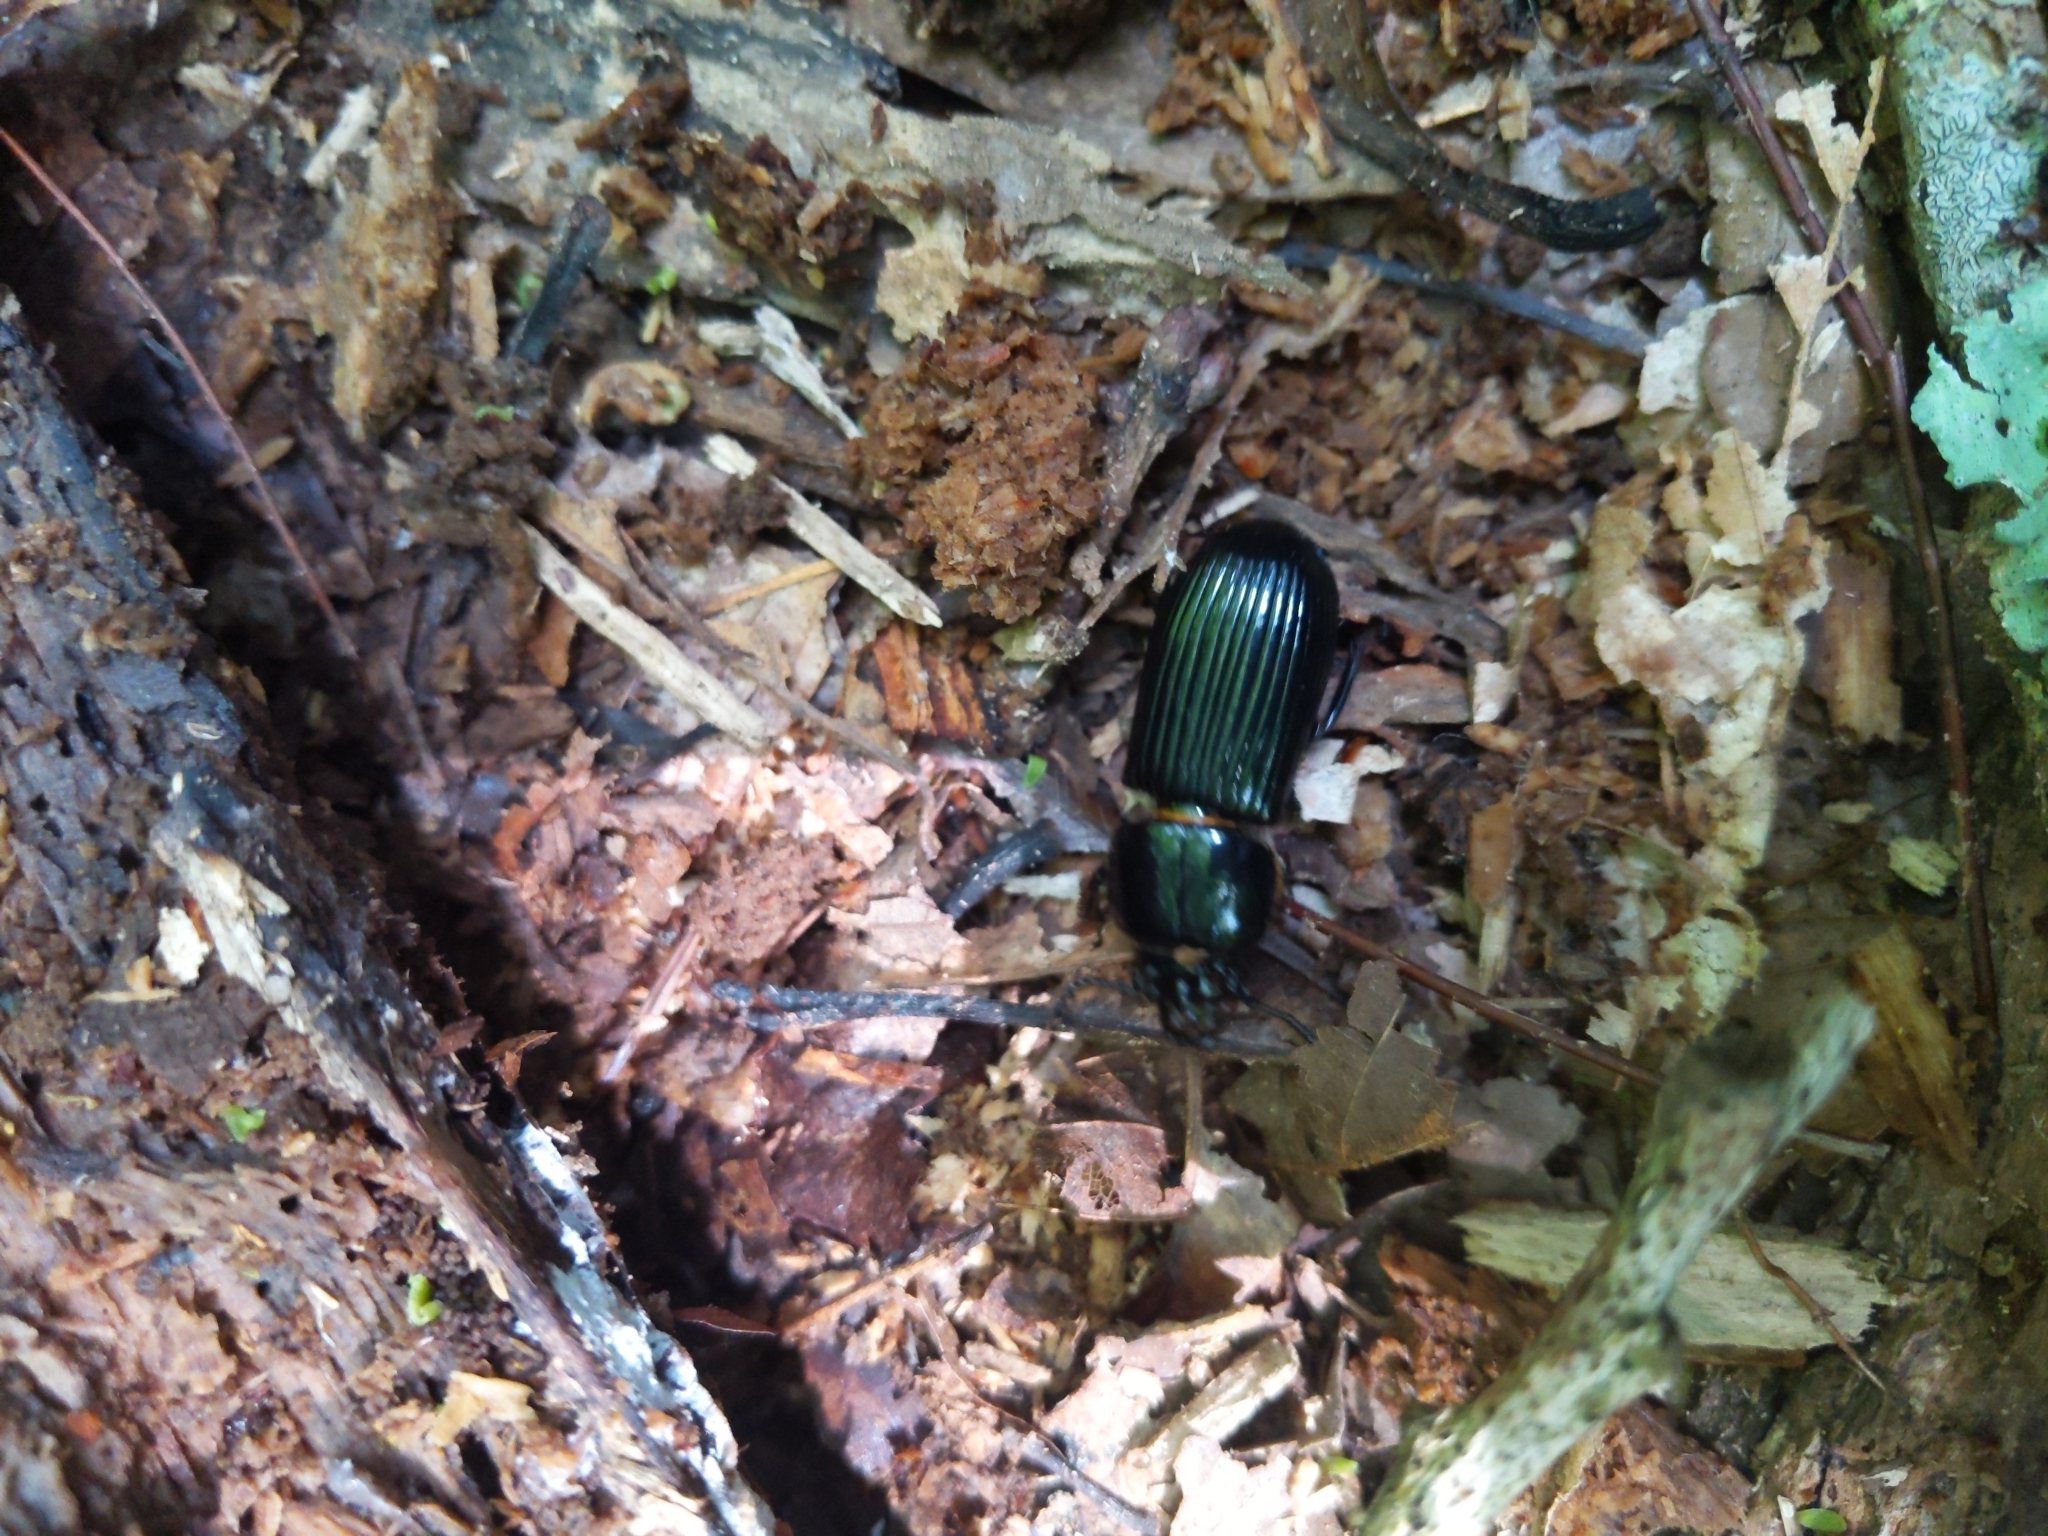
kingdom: Animalia
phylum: Arthropoda
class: Insecta
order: Coleoptera
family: Passalidae
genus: Odontotaenius
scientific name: Odontotaenius disjunctus
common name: Patent leather beetle
